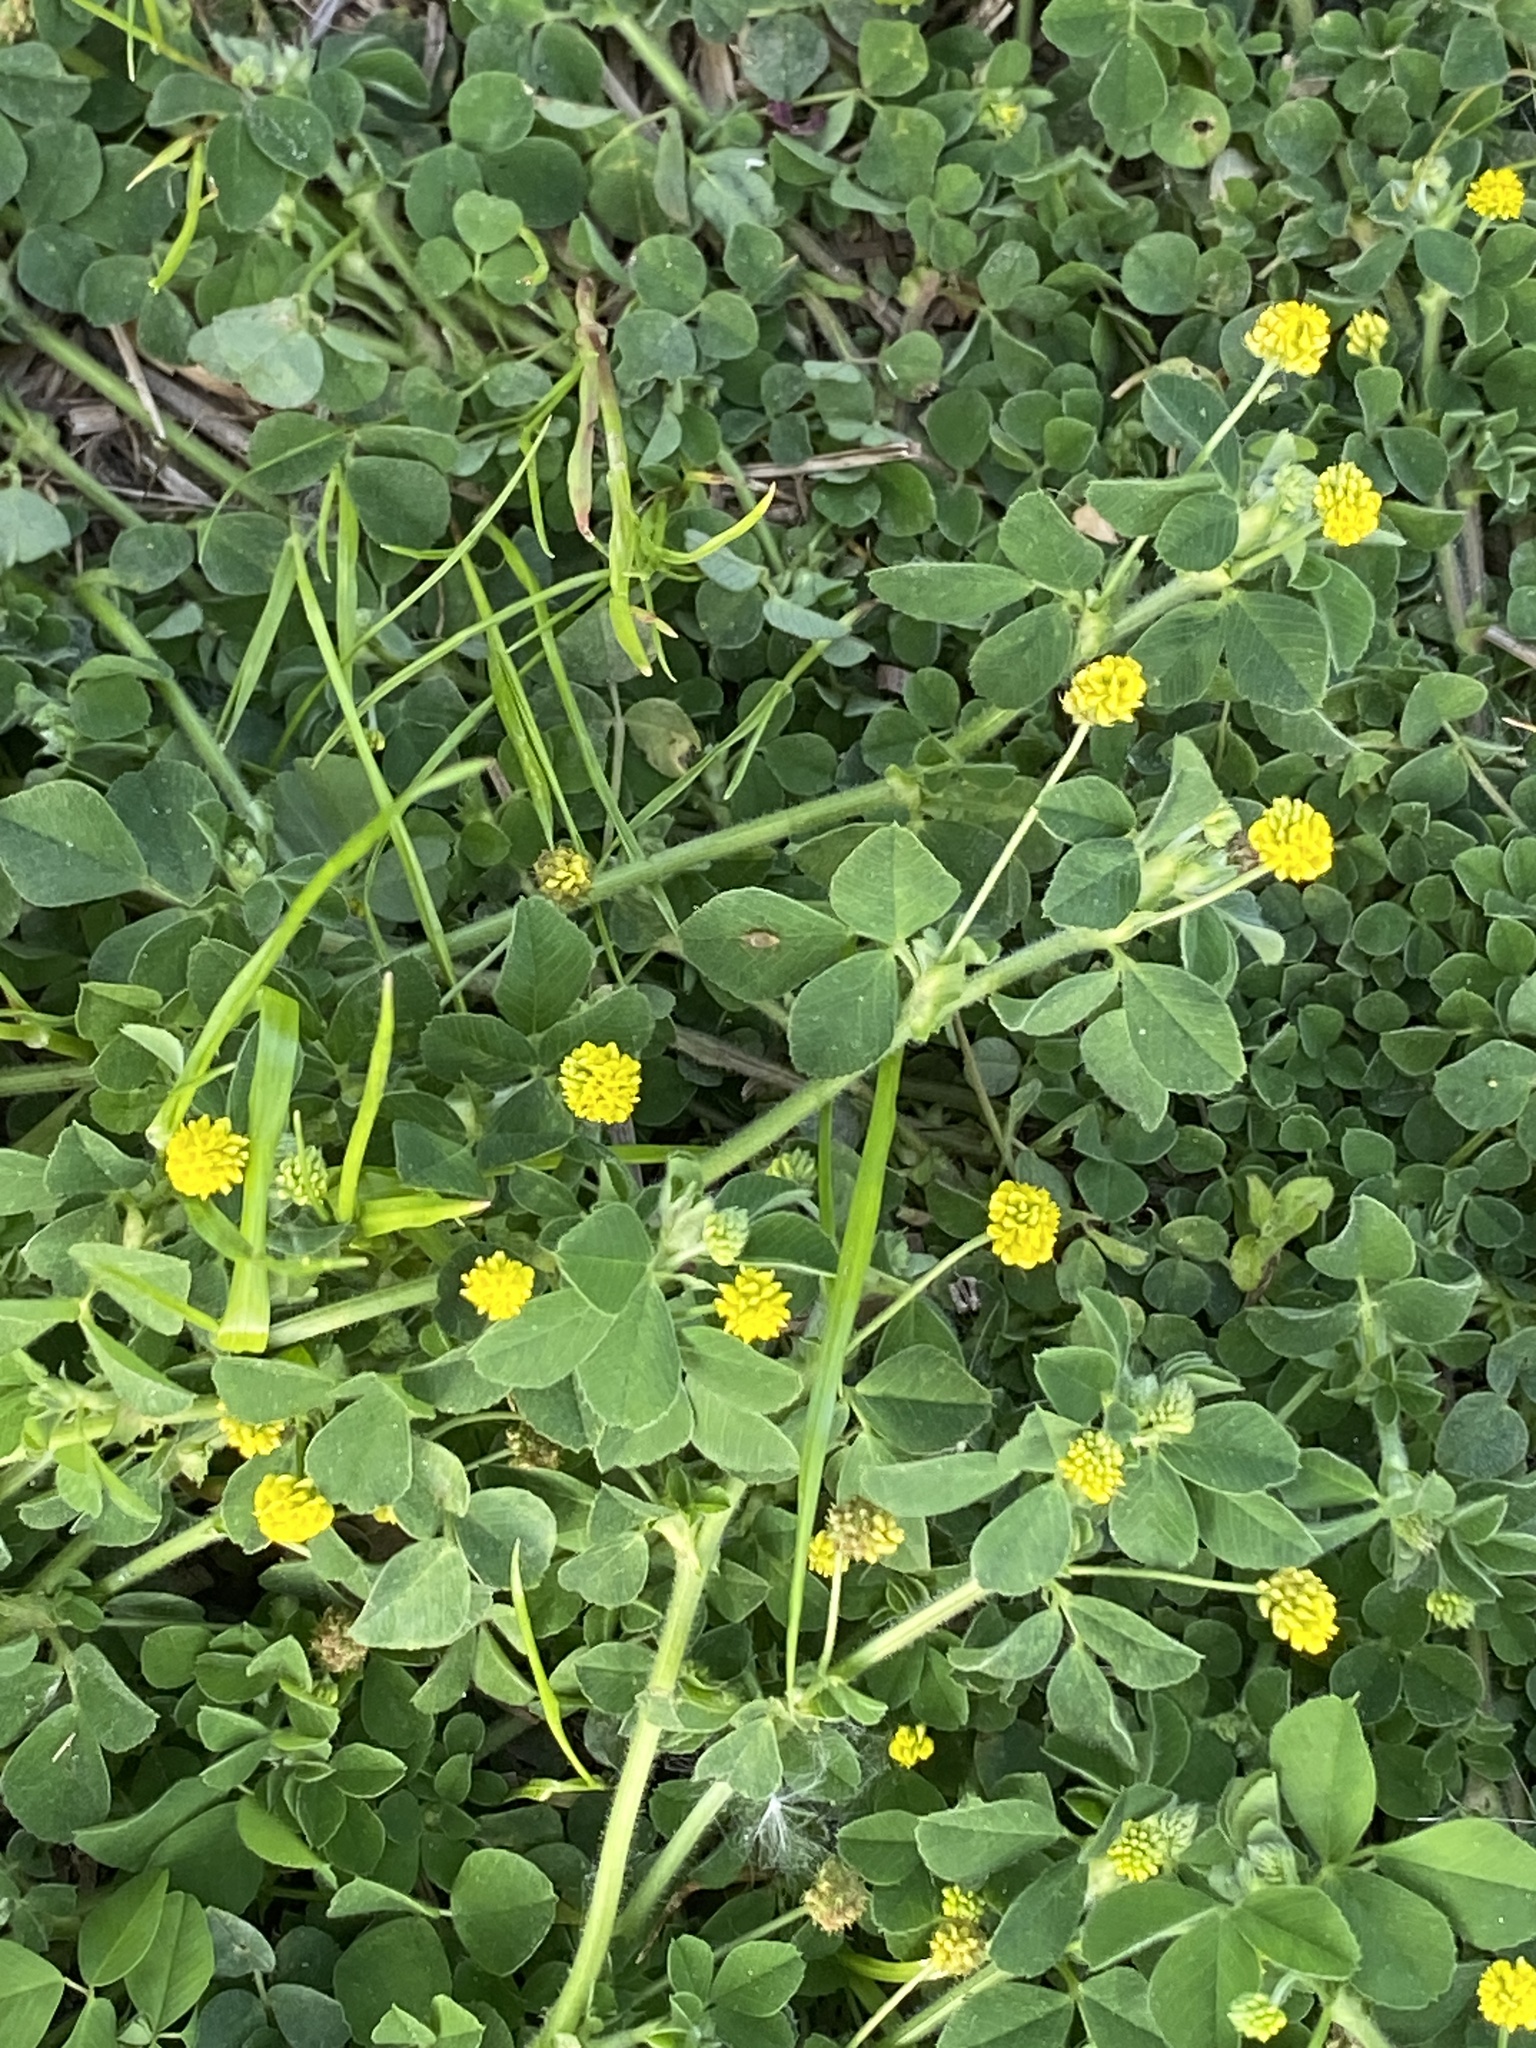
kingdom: Plantae
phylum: Tracheophyta
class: Magnoliopsida
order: Fabales
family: Fabaceae
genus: Medicago
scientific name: Medicago lupulina
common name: Black medick
